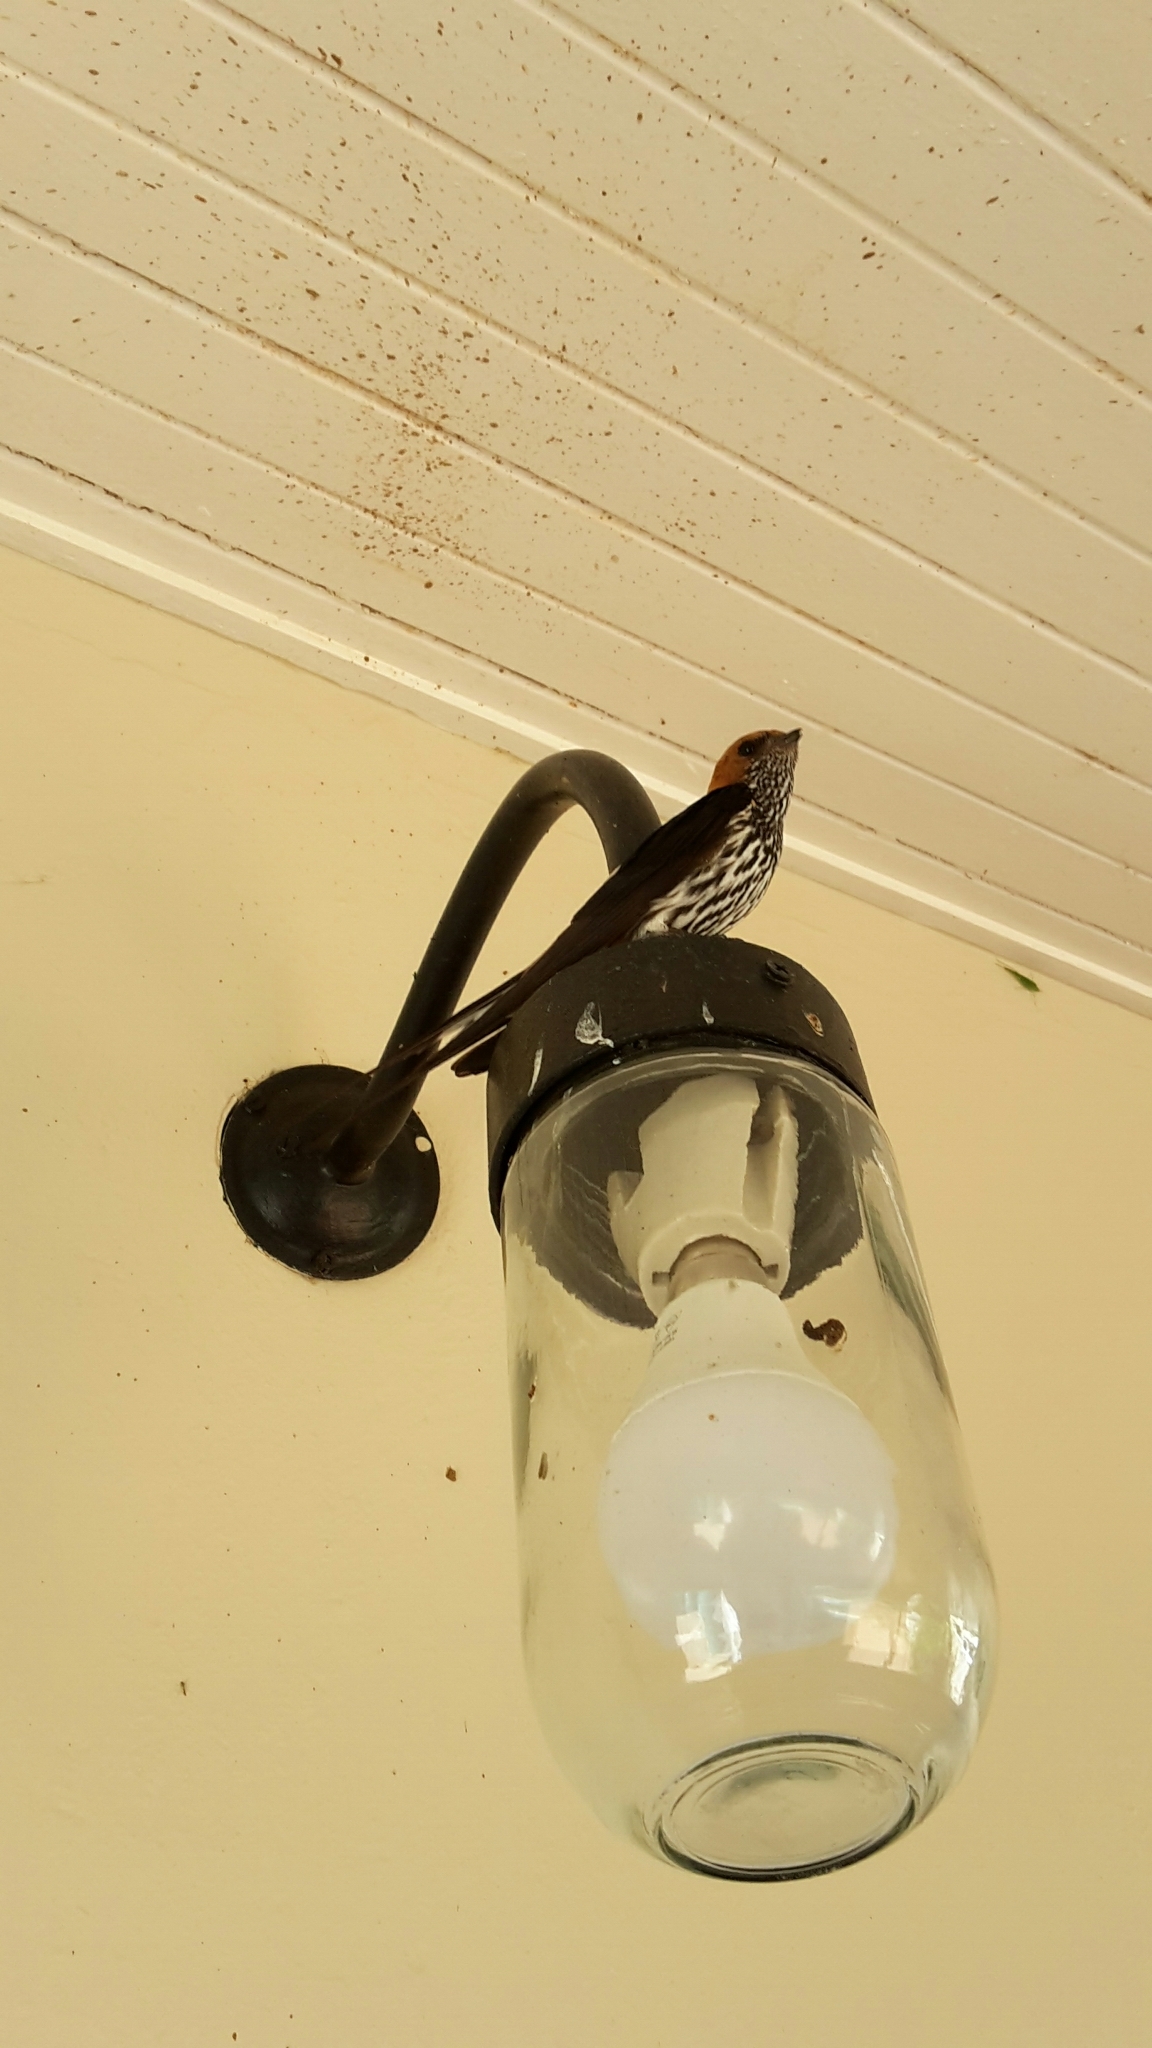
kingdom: Animalia
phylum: Chordata
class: Aves
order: Passeriformes
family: Hirundinidae
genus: Cecropis
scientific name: Cecropis abyssinica
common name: Lesser striped-swallow
